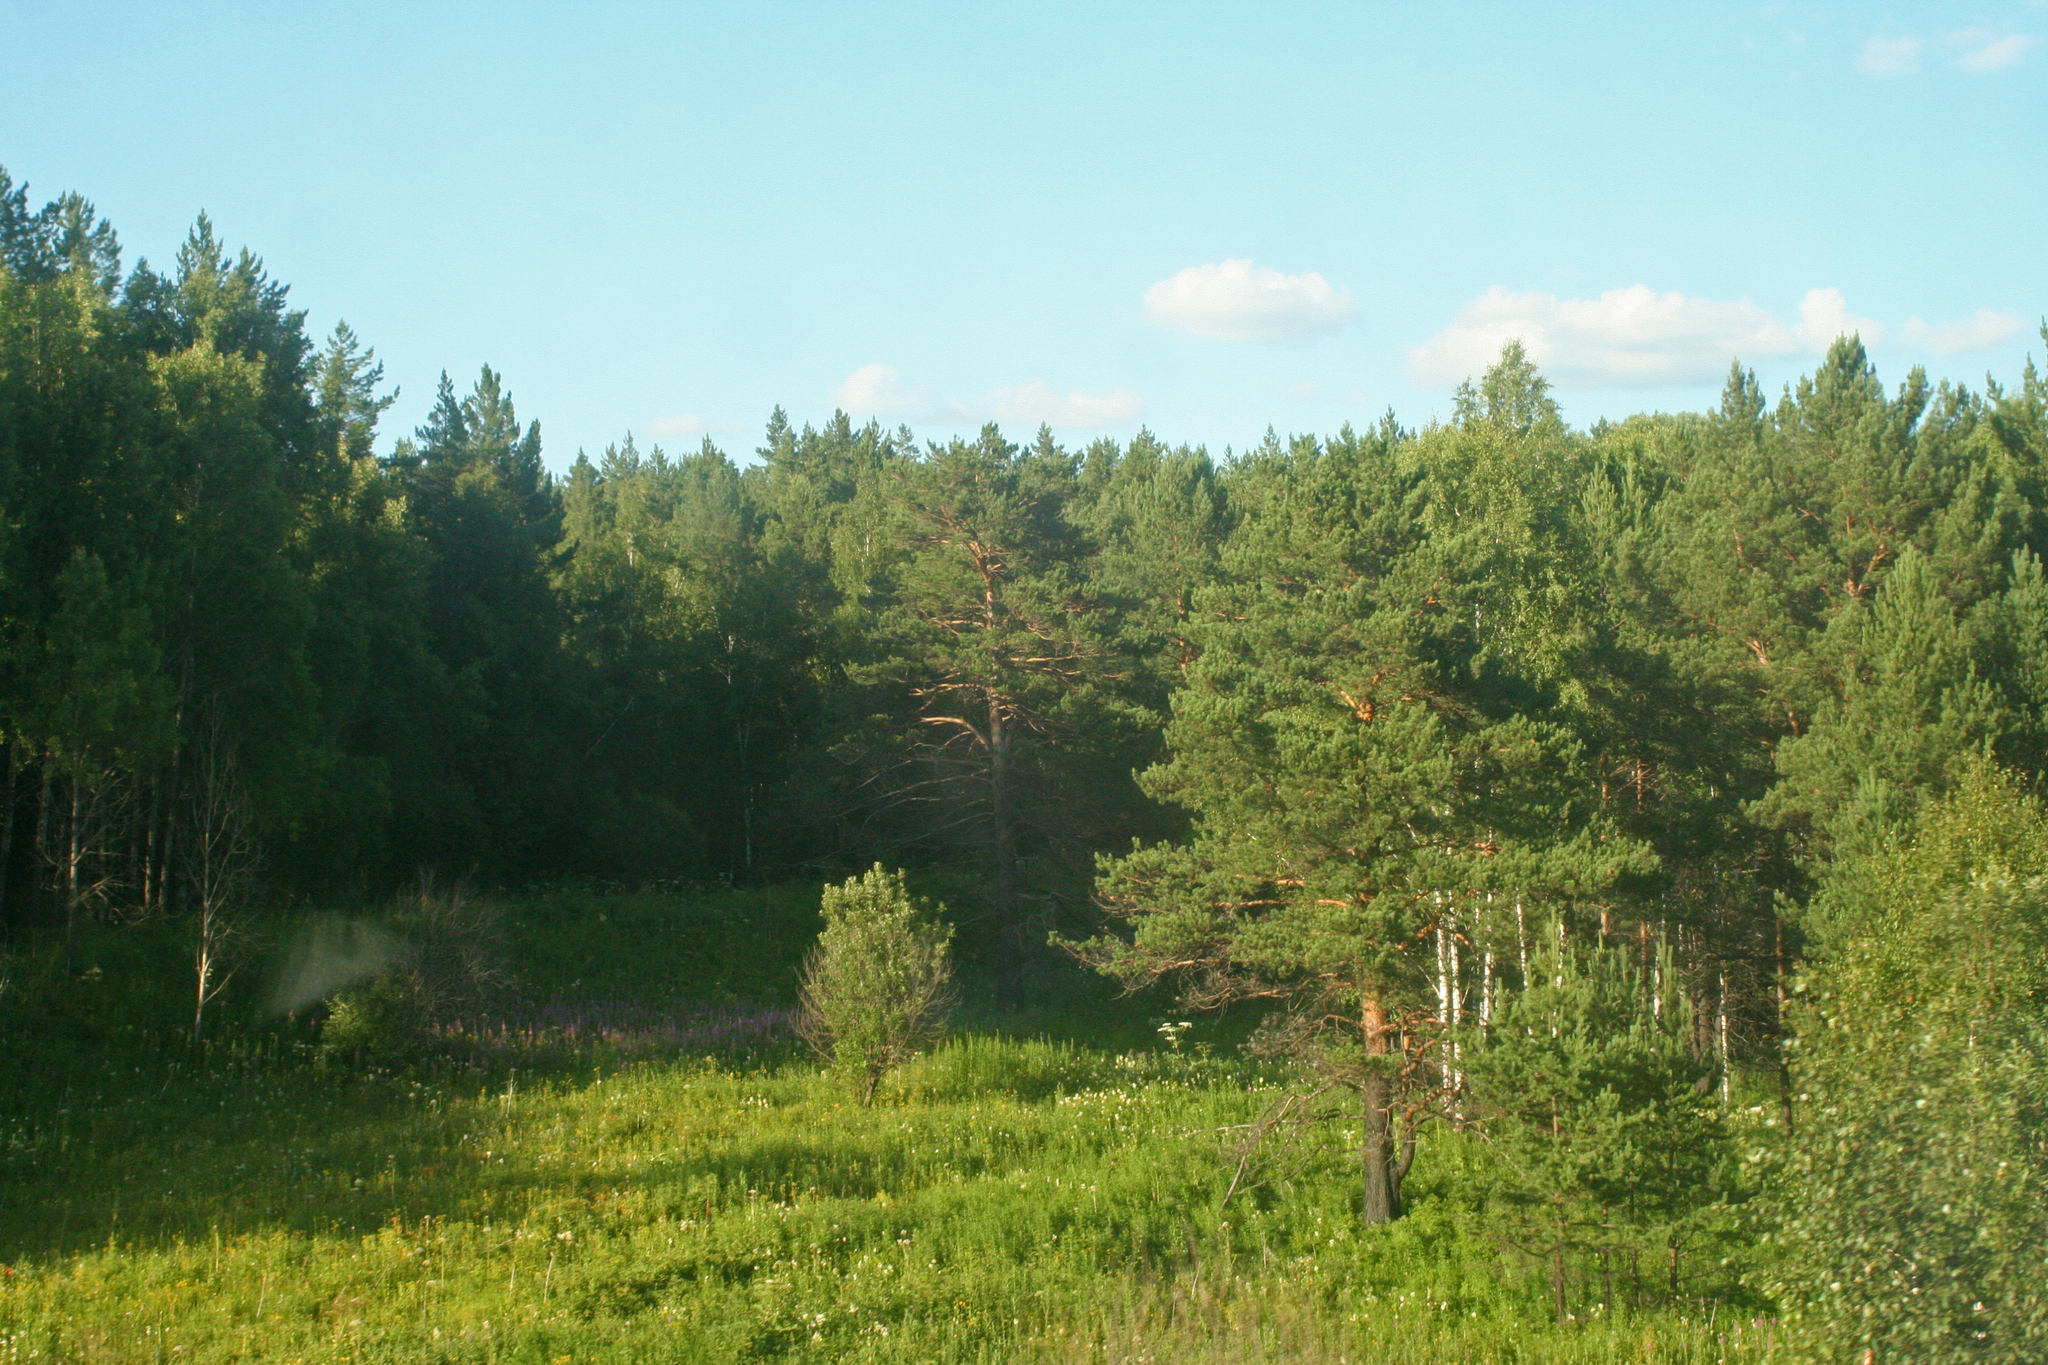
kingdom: Plantae
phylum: Tracheophyta
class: Pinopsida
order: Pinales
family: Pinaceae
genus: Pinus
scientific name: Pinus sylvestris
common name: Scots pine
